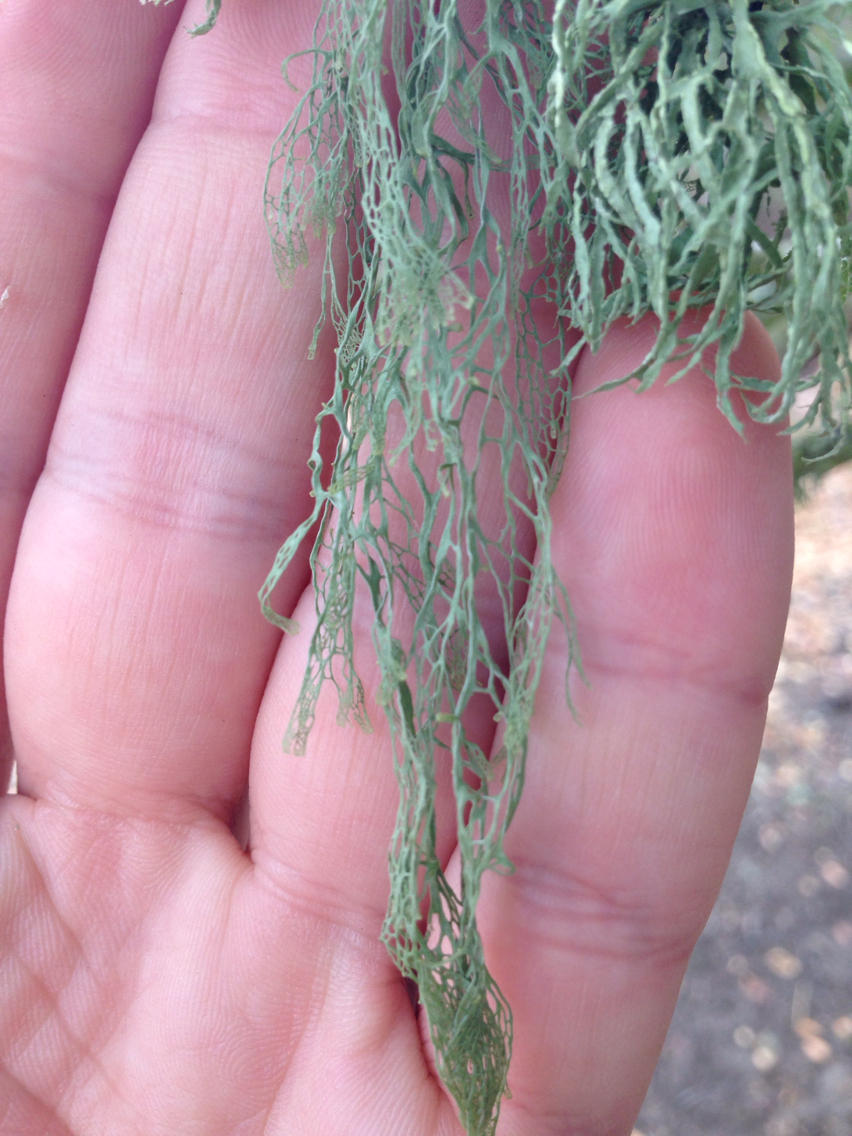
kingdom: Fungi
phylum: Ascomycota
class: Lecanoromycetes
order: Lecanorales
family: Ramalinaceae
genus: Ramalina
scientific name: Ramalina menziesii
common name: Lace lichen
